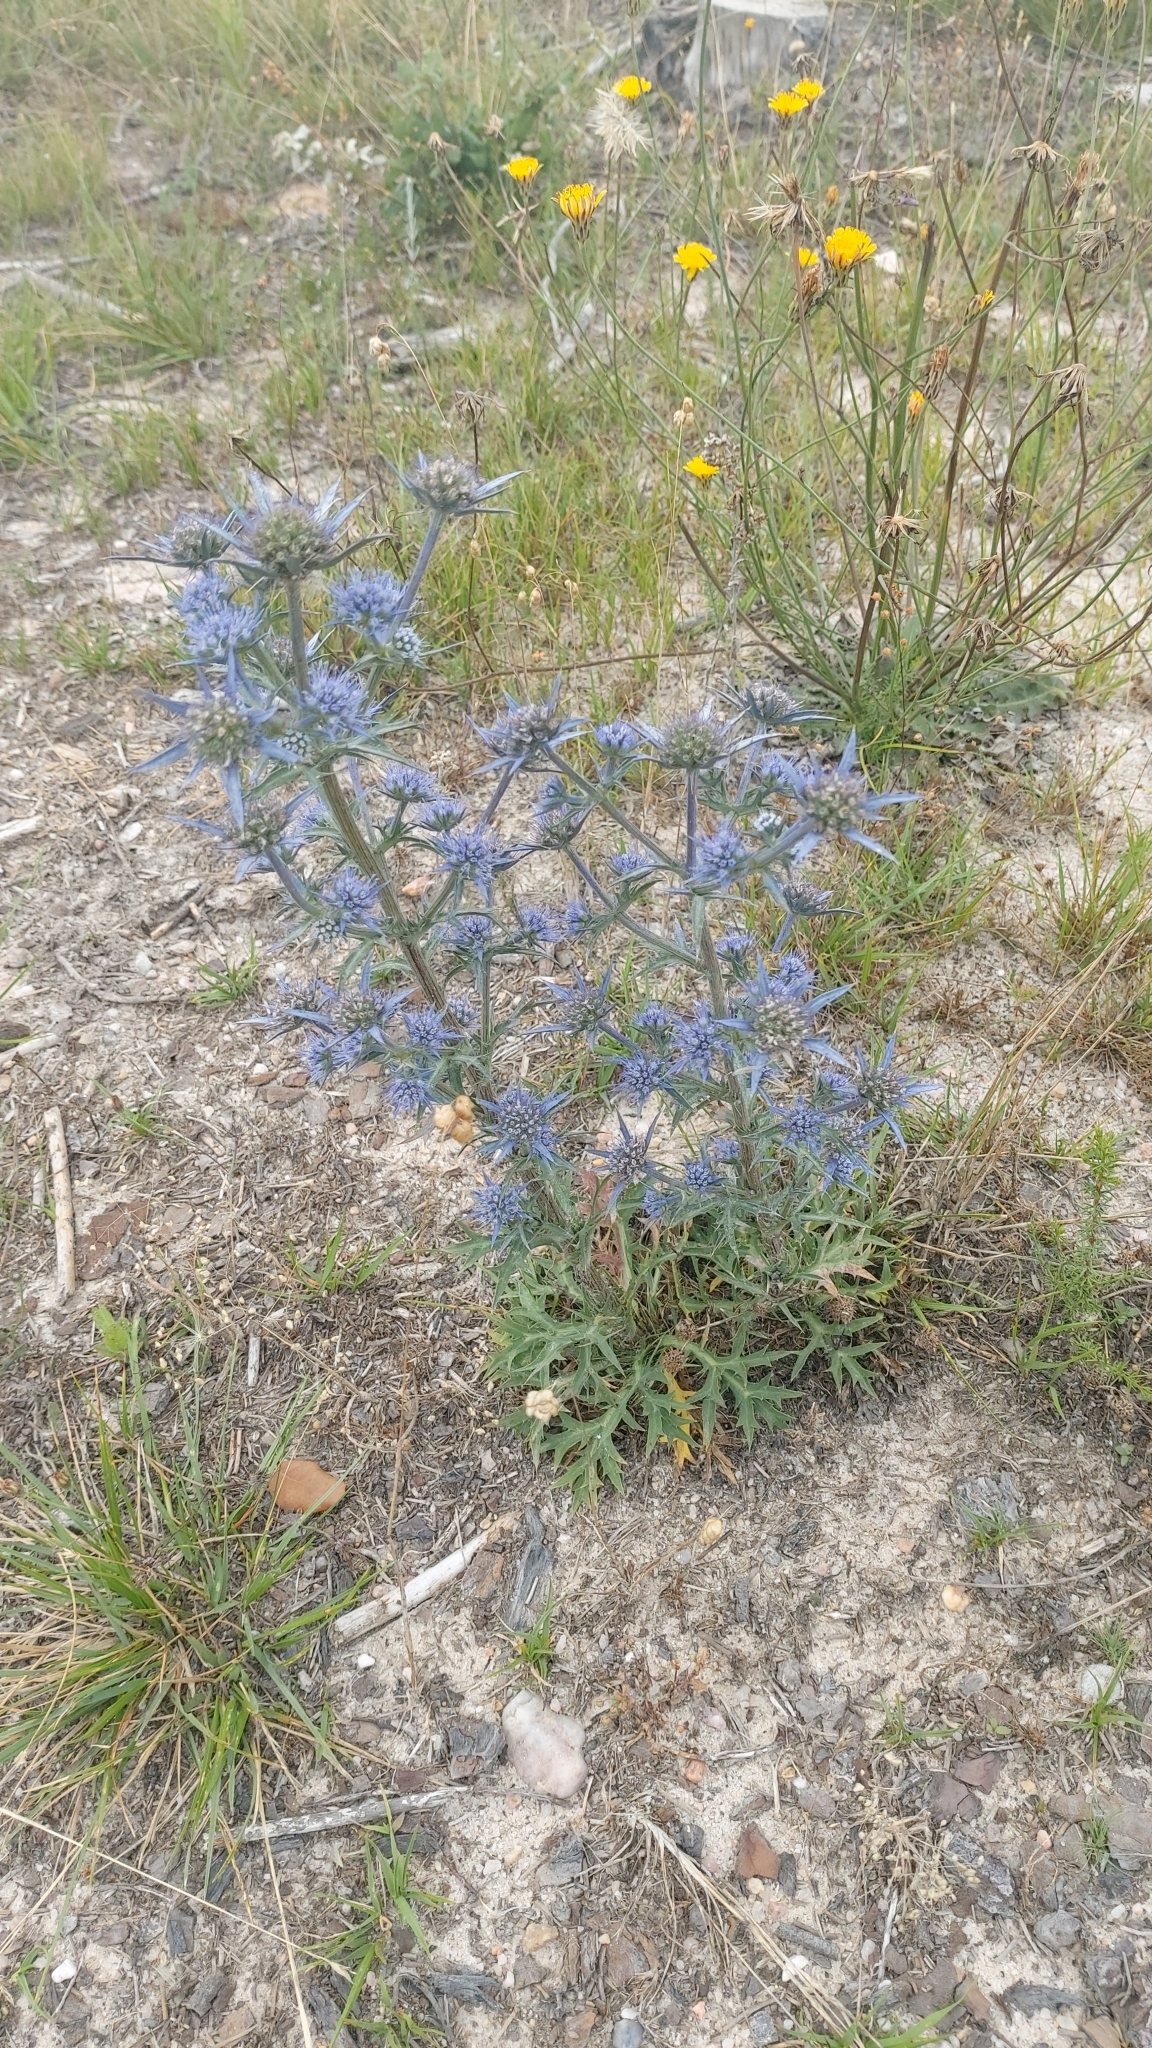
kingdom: Plantae
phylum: Tracheophyta
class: Magnoliopsida
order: Apiales
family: Apiaceae
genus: Eryngium
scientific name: Eryngium dilatatum
